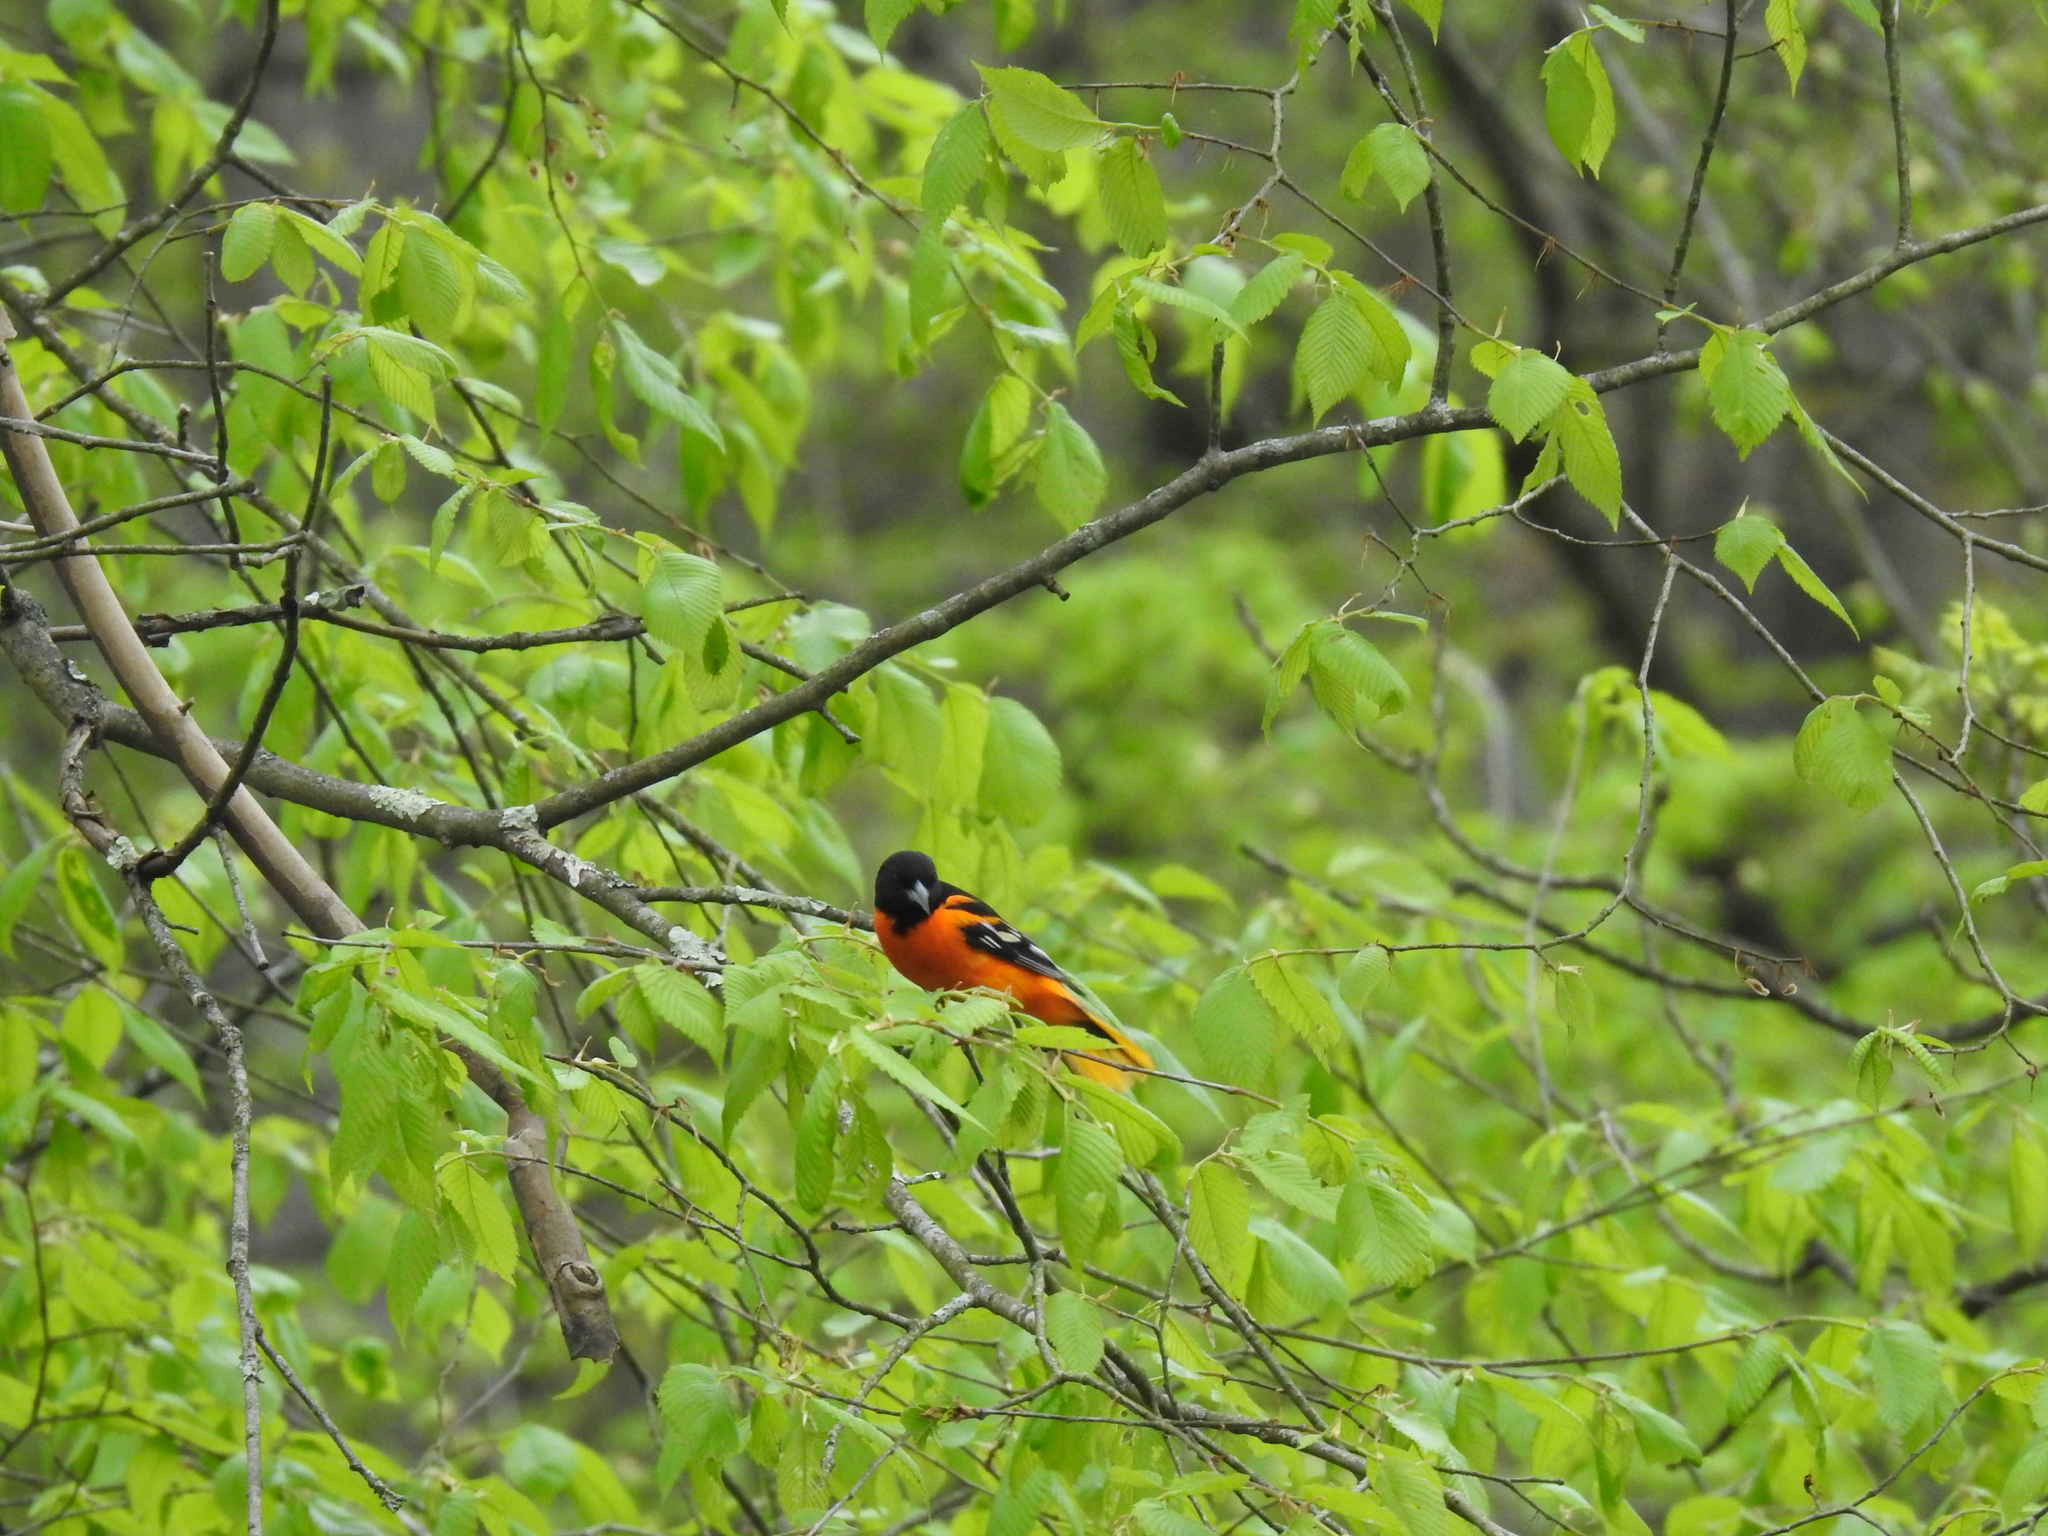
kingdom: Animalia
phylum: Chordata
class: Aves
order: Passeriformes
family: Icteridae
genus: Icterus
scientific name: Icterus galbula
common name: Baltimore oriole
